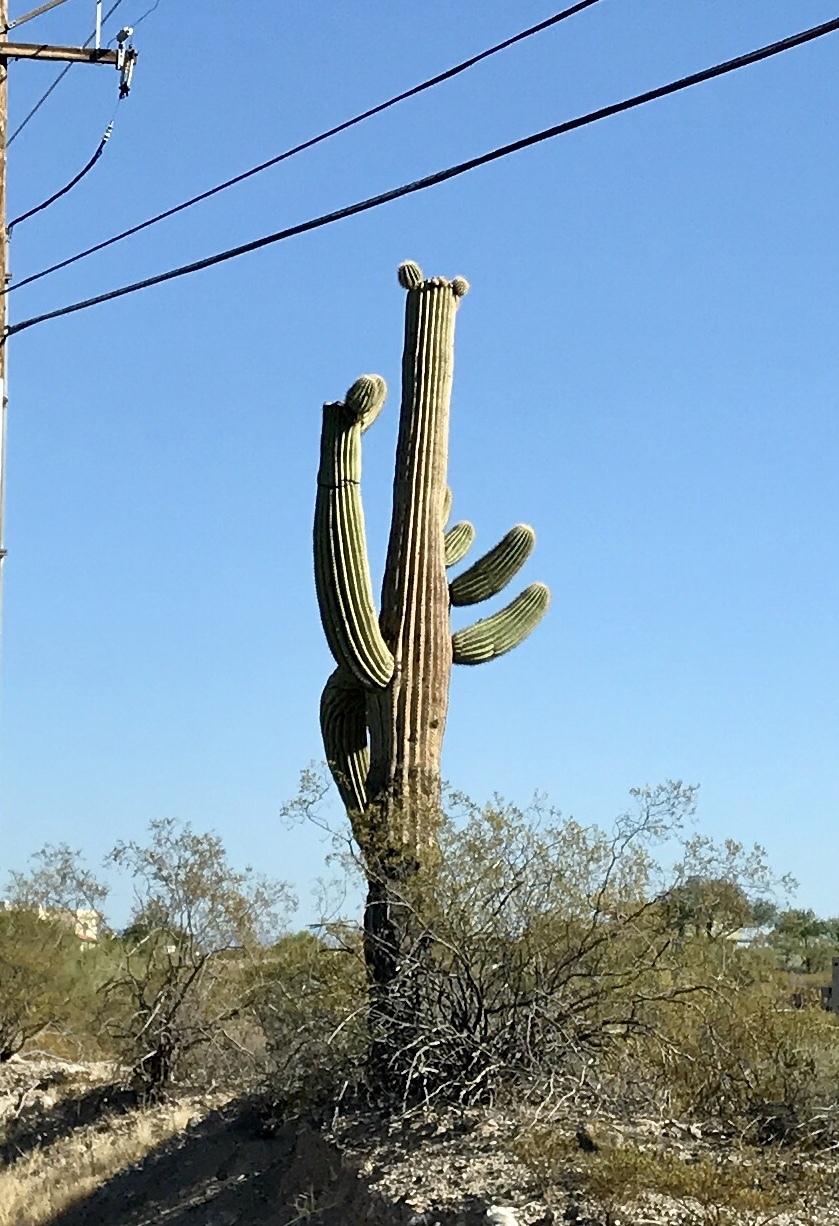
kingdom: Plantae
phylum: Tracheophyta
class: Magnoliopsida
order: Caryophyllales
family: Cactaceae
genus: Carnegiea
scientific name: Carnegiea gigantea
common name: Saguaro
